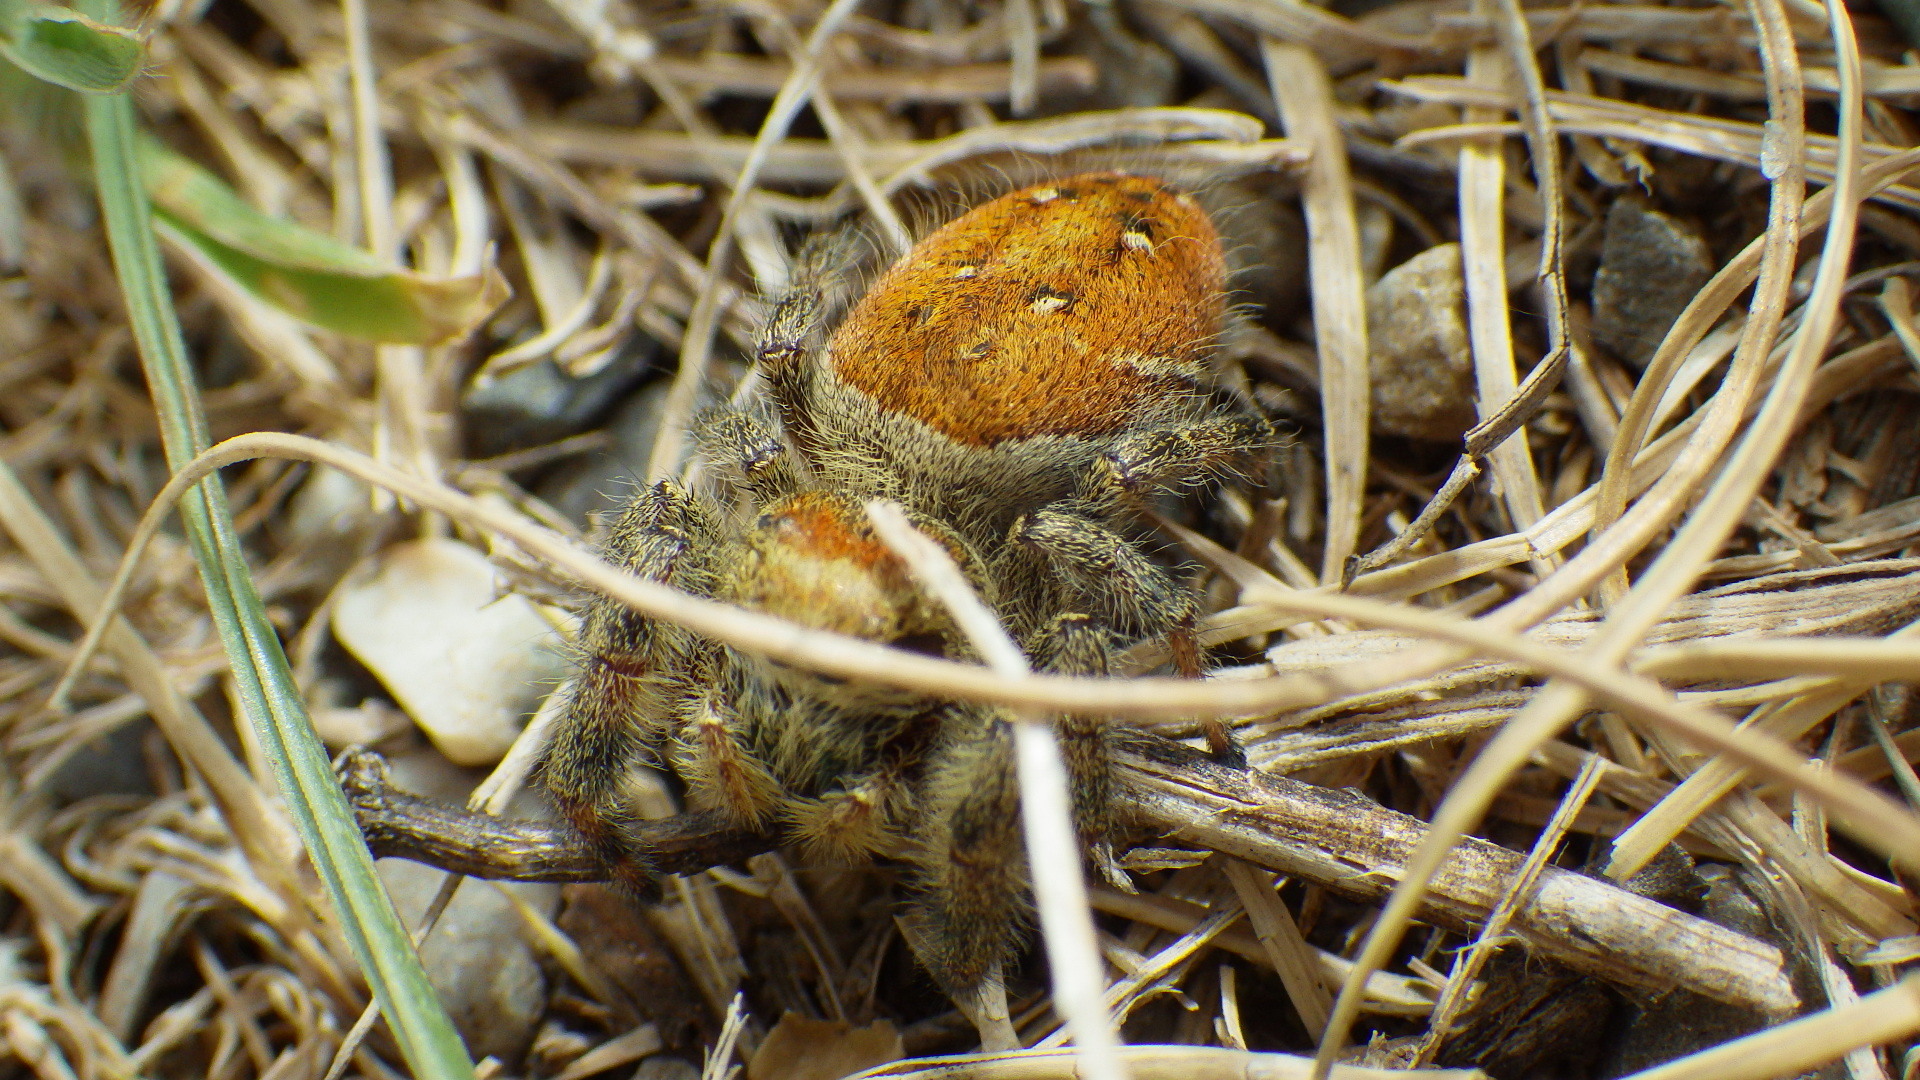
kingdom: Animalia
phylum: Arthropoda
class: Arachnida
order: Araneae
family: Salticidae
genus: Phidippus
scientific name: Phidippus clarus
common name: Brilliant jumping spider
